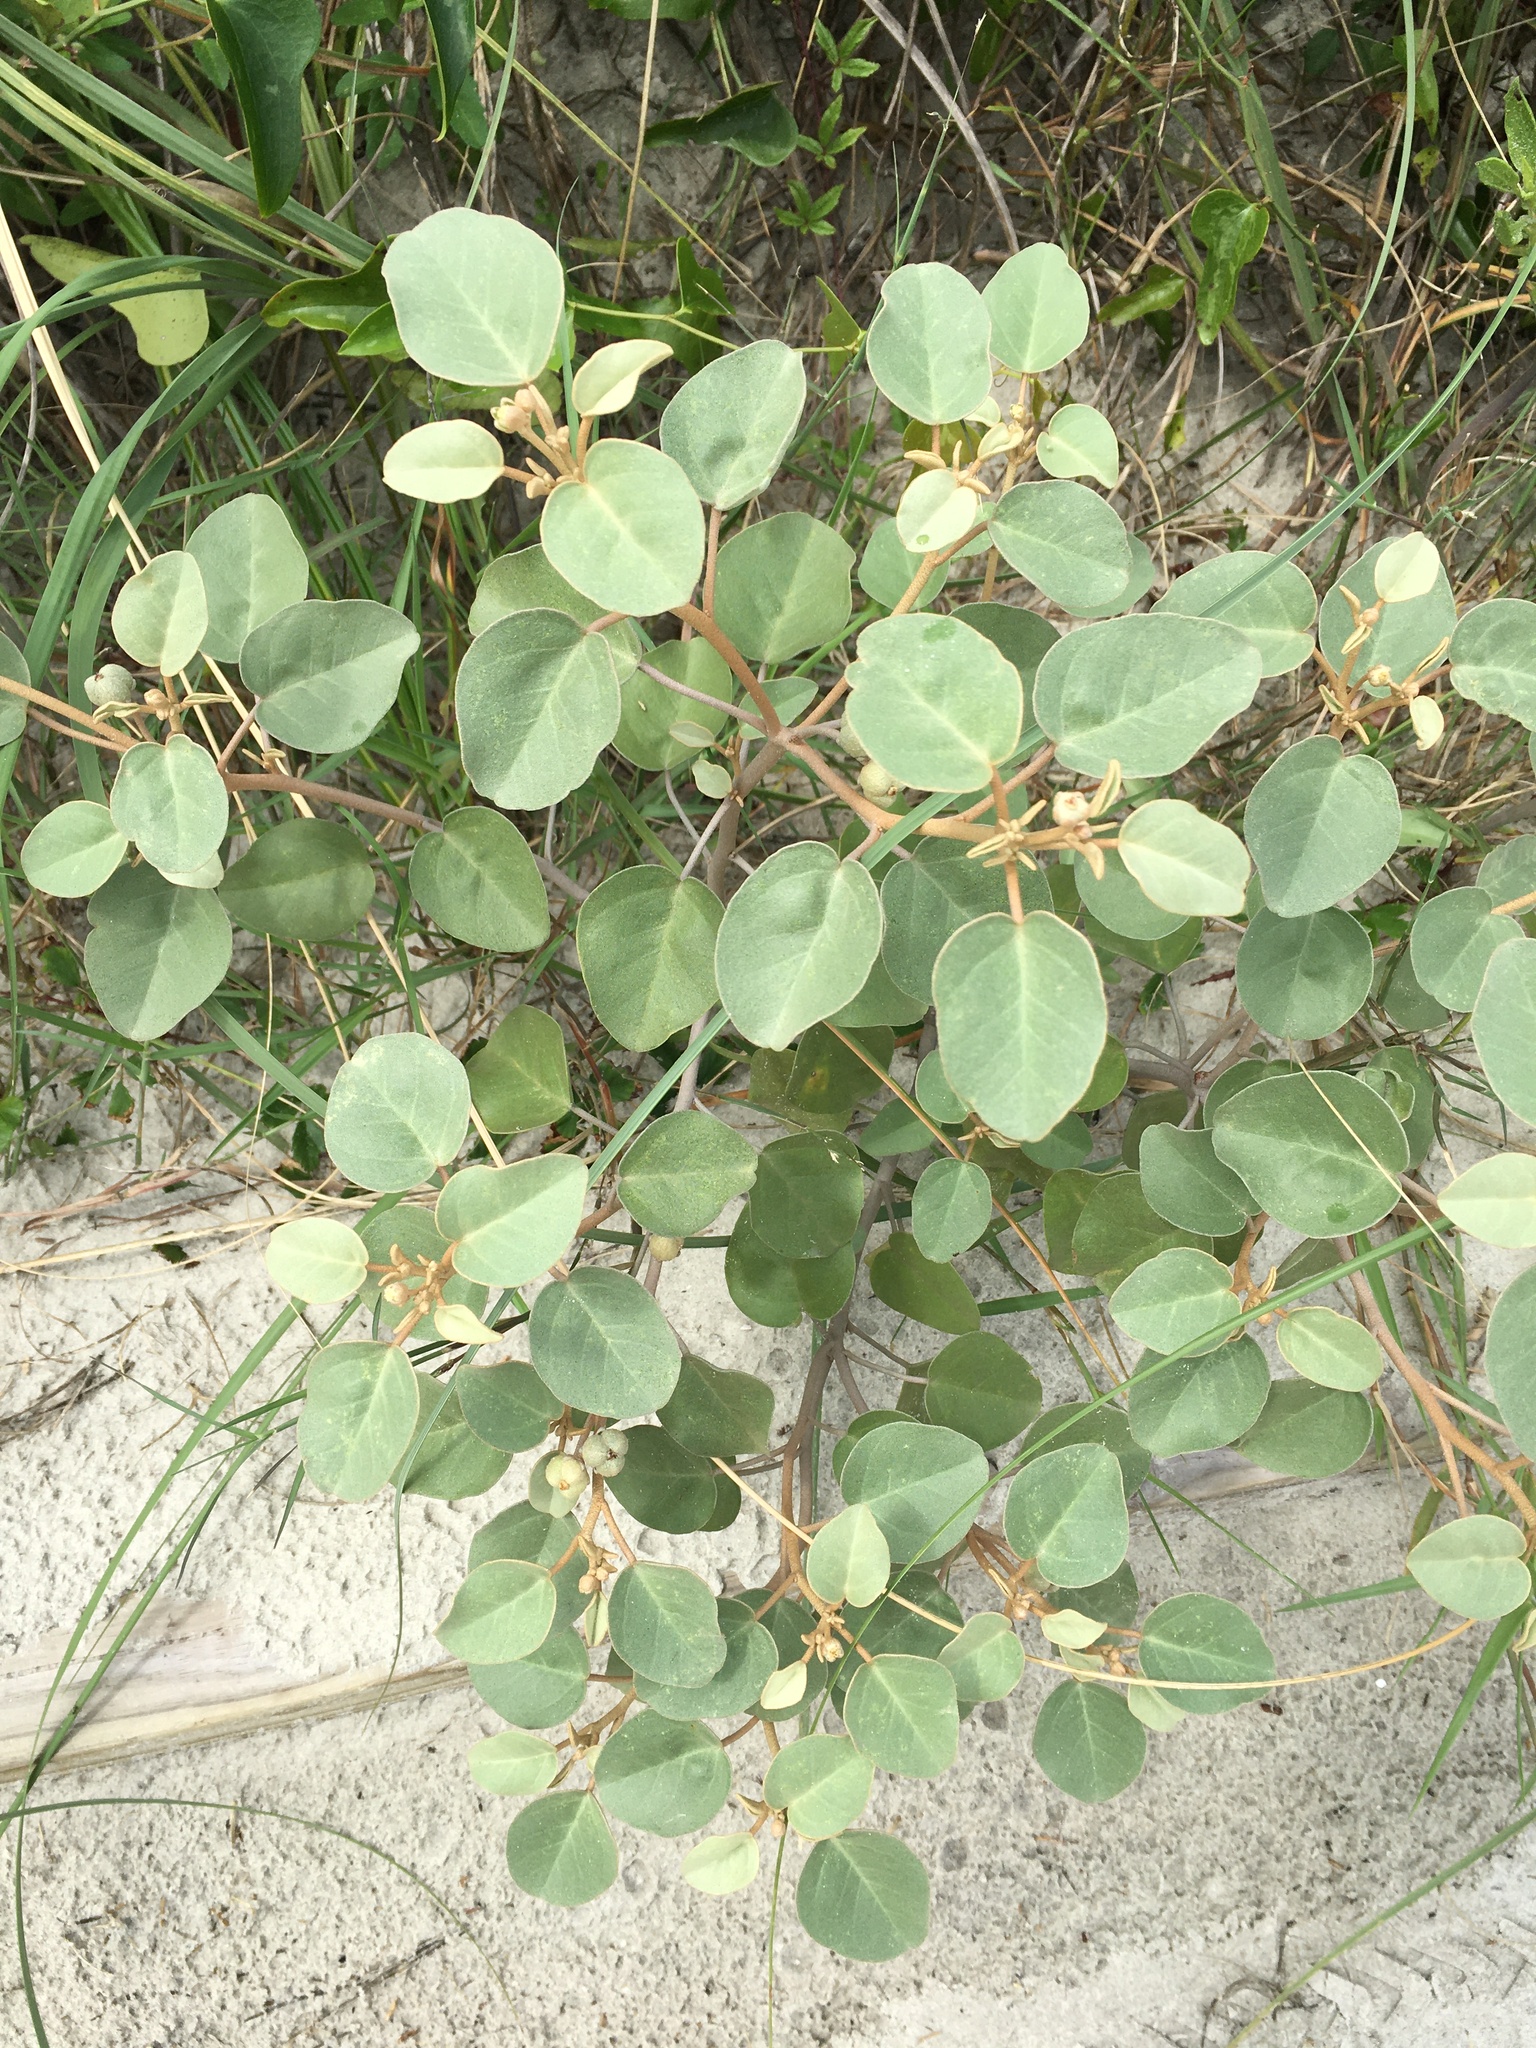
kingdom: Plantae
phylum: Tracheophyta
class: Magnoliopsida
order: Malpighiales
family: Euphorbiaceae
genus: Croton
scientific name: Croton punctatus
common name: Beach-tea
